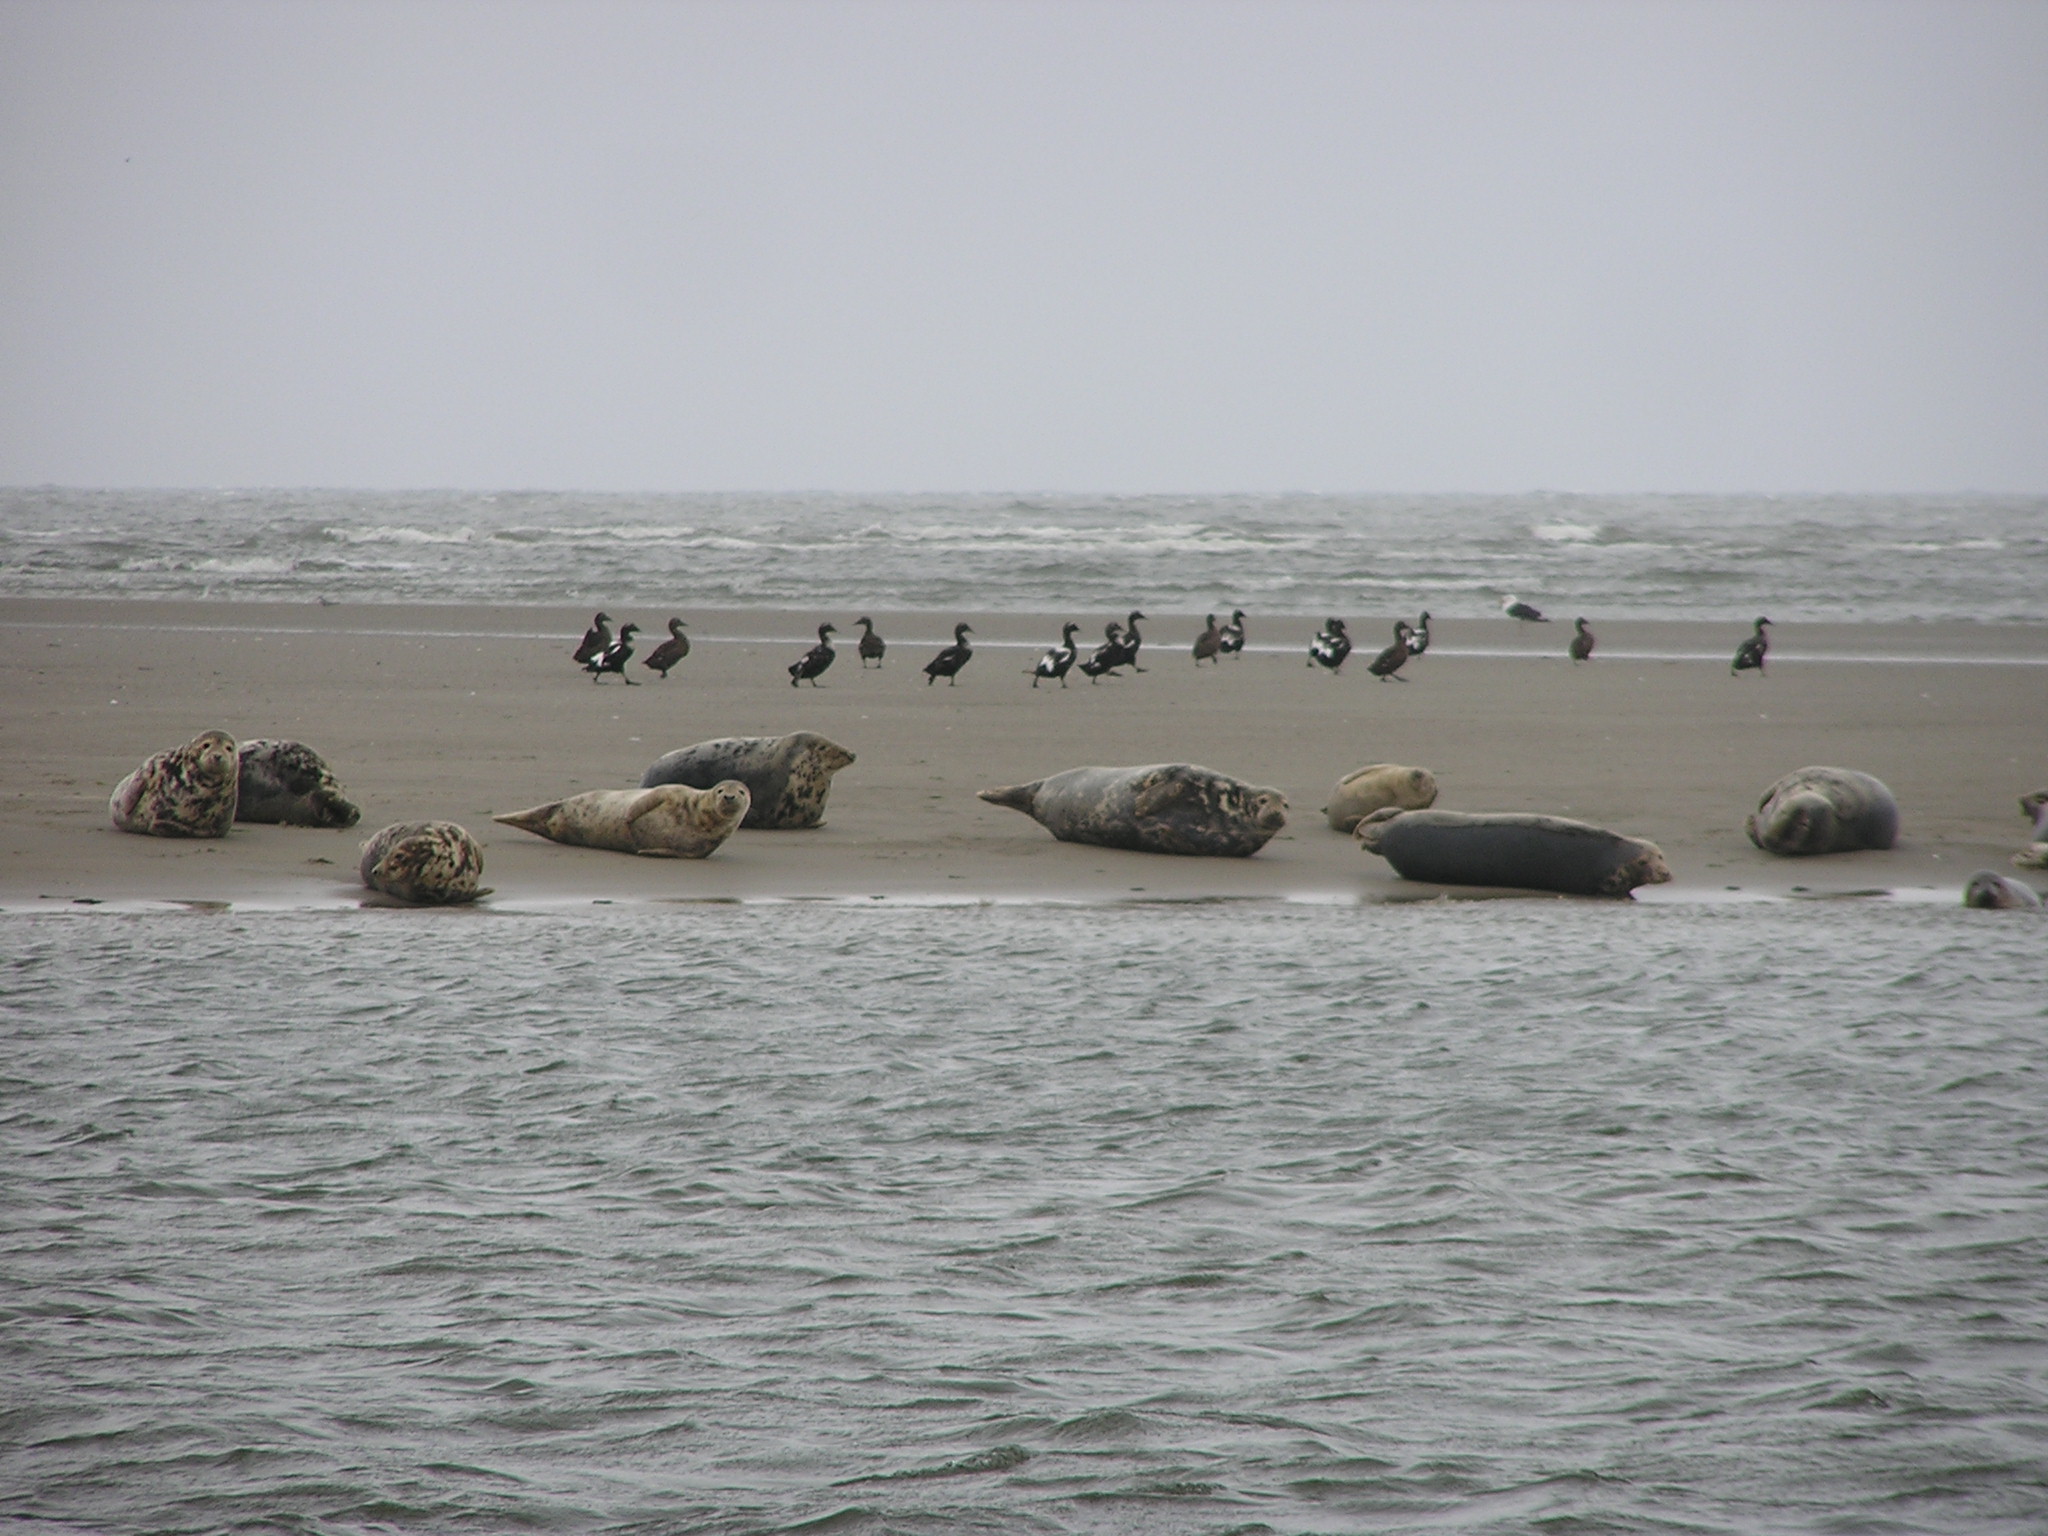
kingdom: Animalia
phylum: Chordata
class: Mammalia
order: Carnivora
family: Phocidae
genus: Halichoerus
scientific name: Halichoerus grypus
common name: Grey seal
